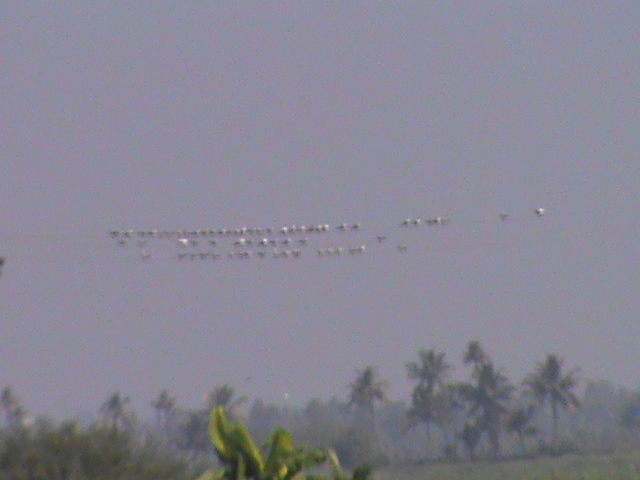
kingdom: Animalia
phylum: Chordata
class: Aves
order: Charadriiformes
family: Laridae
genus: Chlidonias
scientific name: Chlidonias hybrida
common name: Whiskered tern
